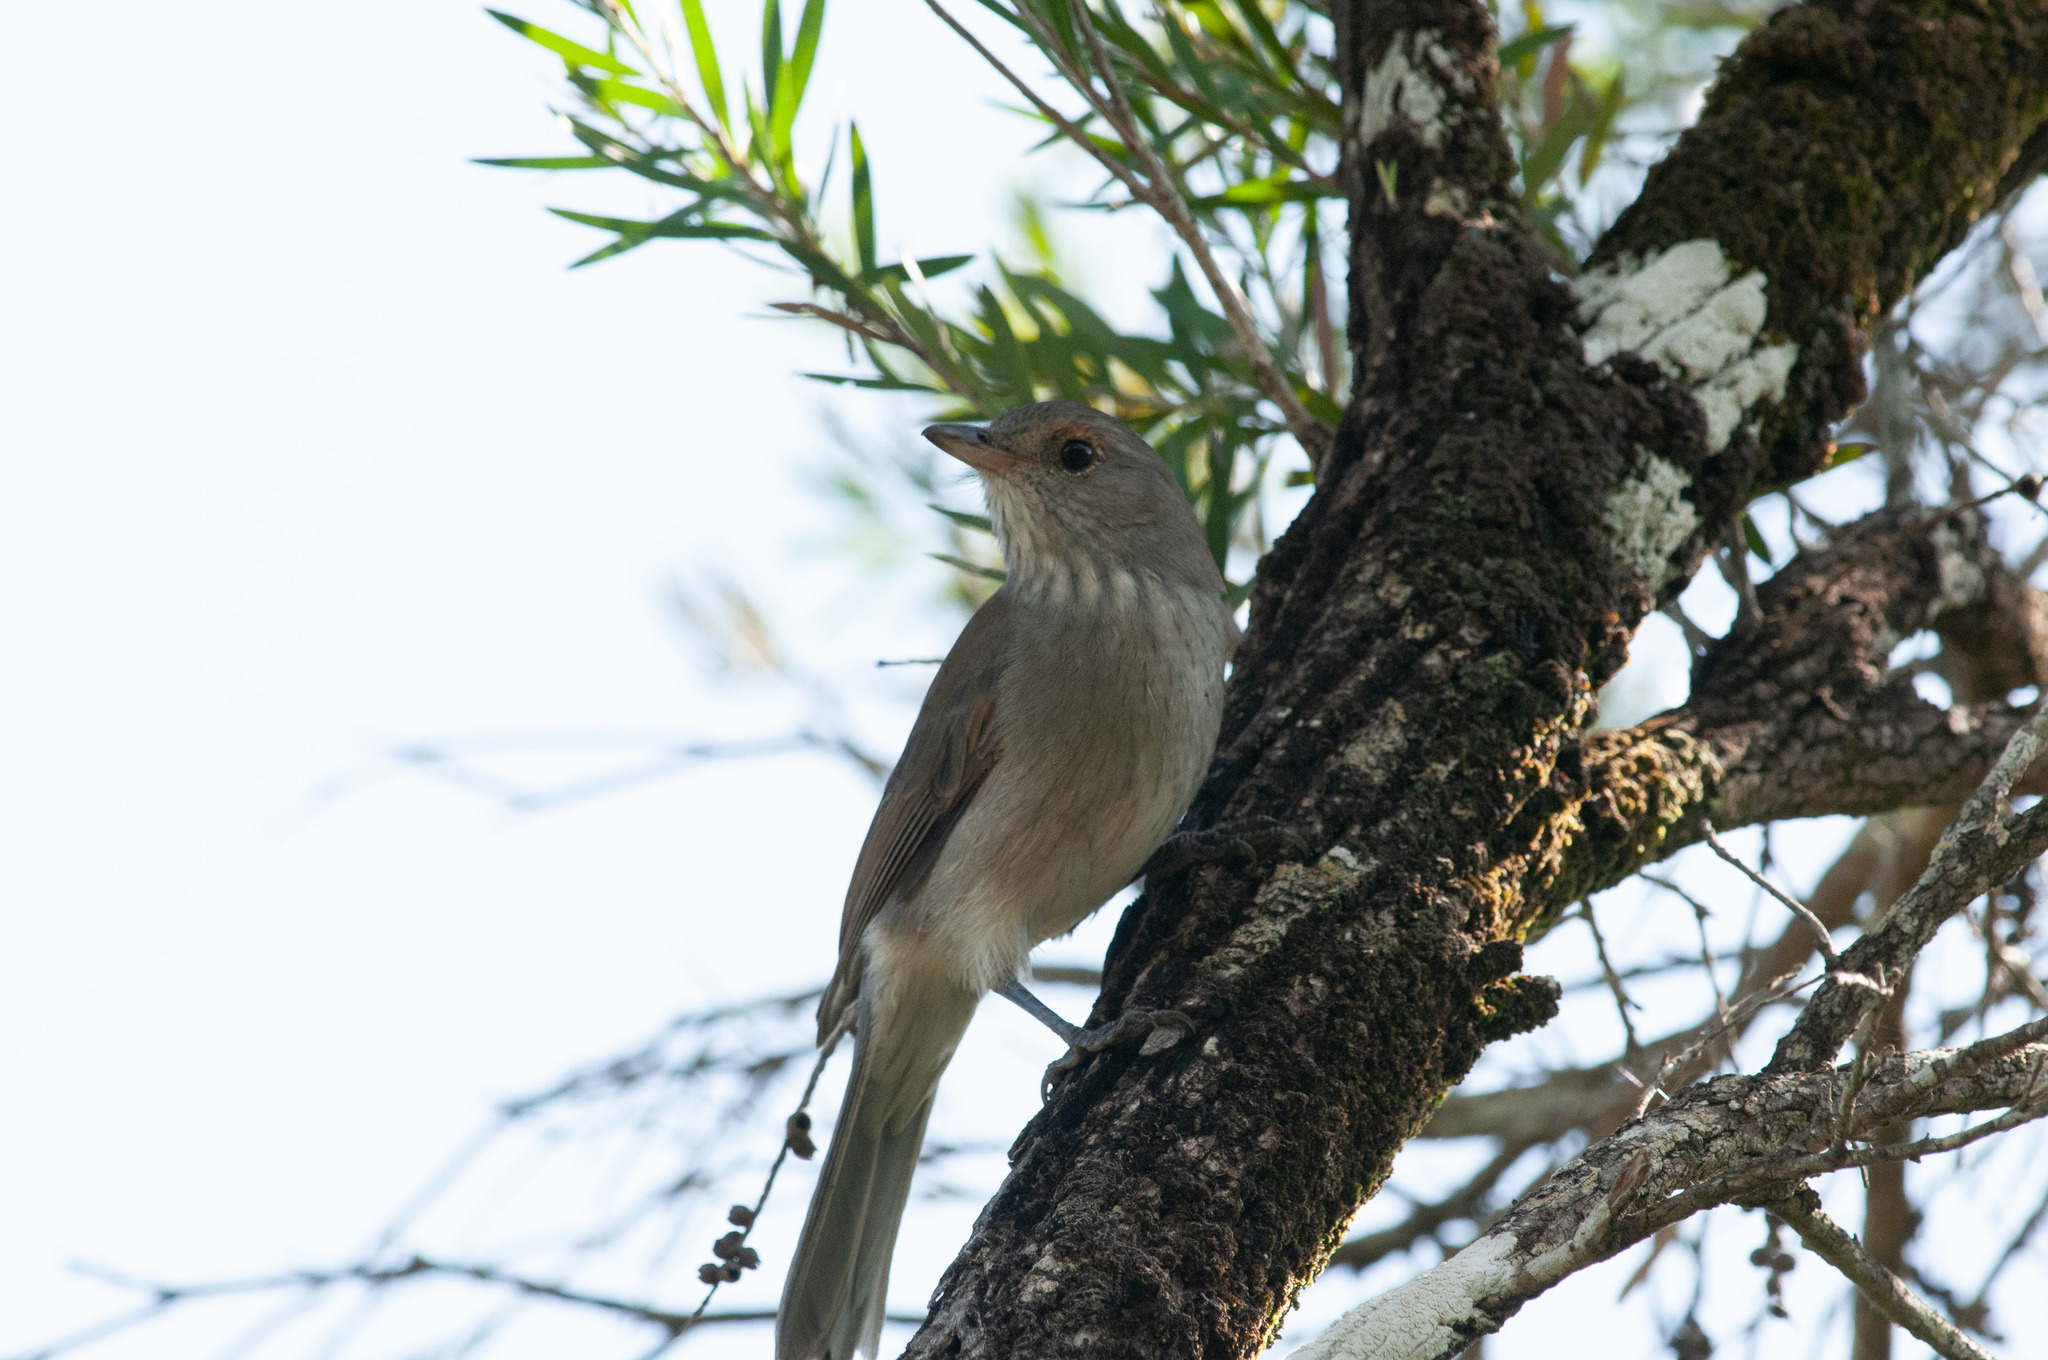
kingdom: Animalia
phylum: Chordata
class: Aves
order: Passeriformes
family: Pachycephalidae
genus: Colluricincla
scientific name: Colluricincla harmonica
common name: Grey shrikethrush
